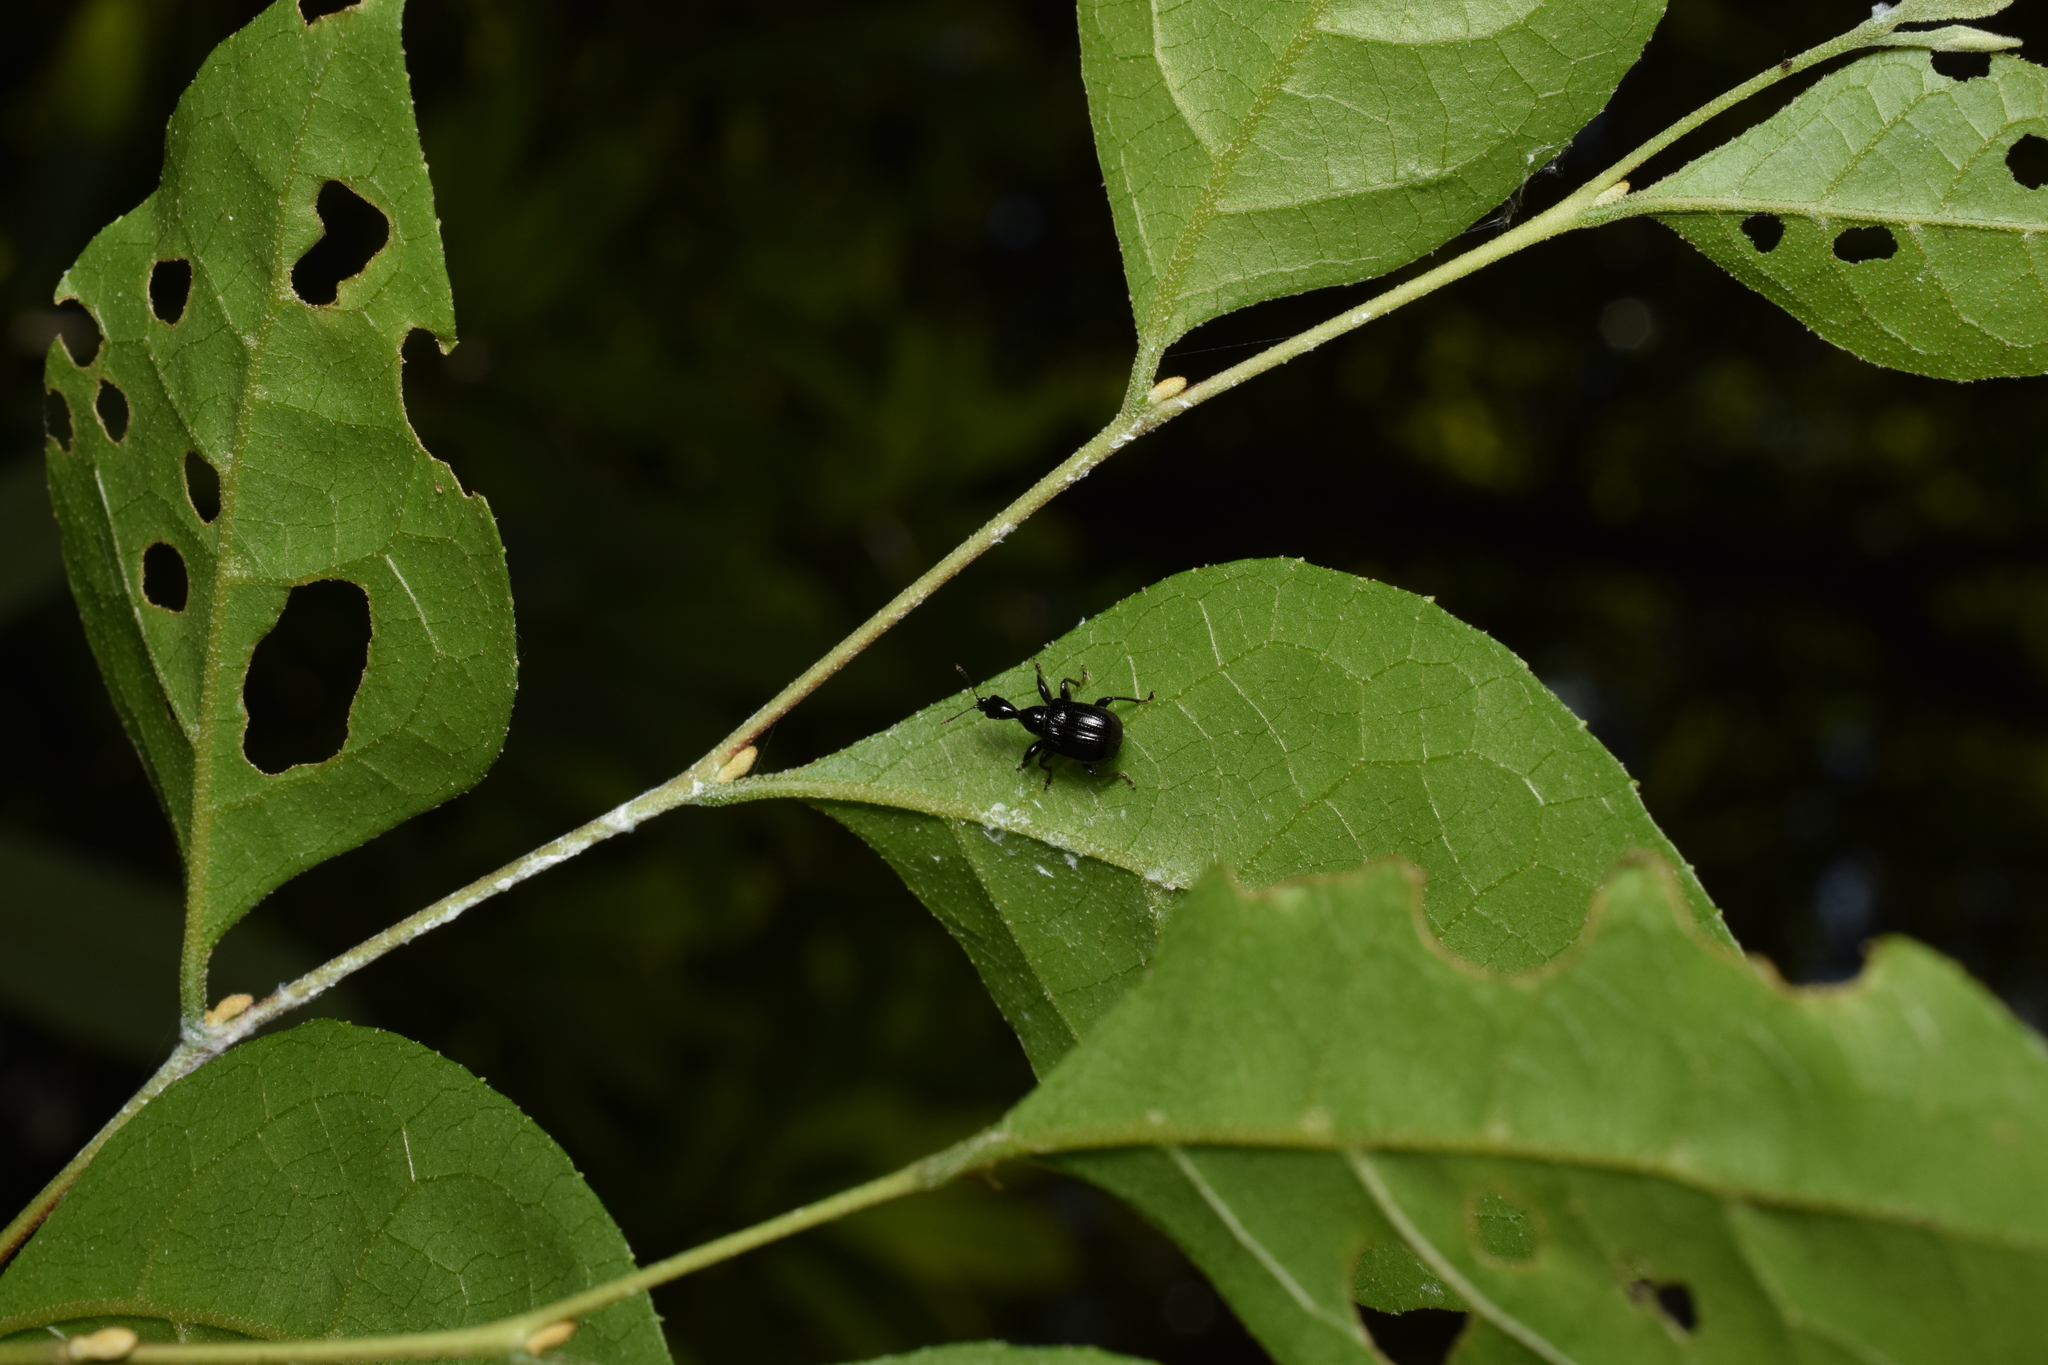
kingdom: Animalia
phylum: Arthropoda
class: Insecta
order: Coleoptera
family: Attelabidae
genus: Compsapoderus
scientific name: Compsapoderus erythrogaster
